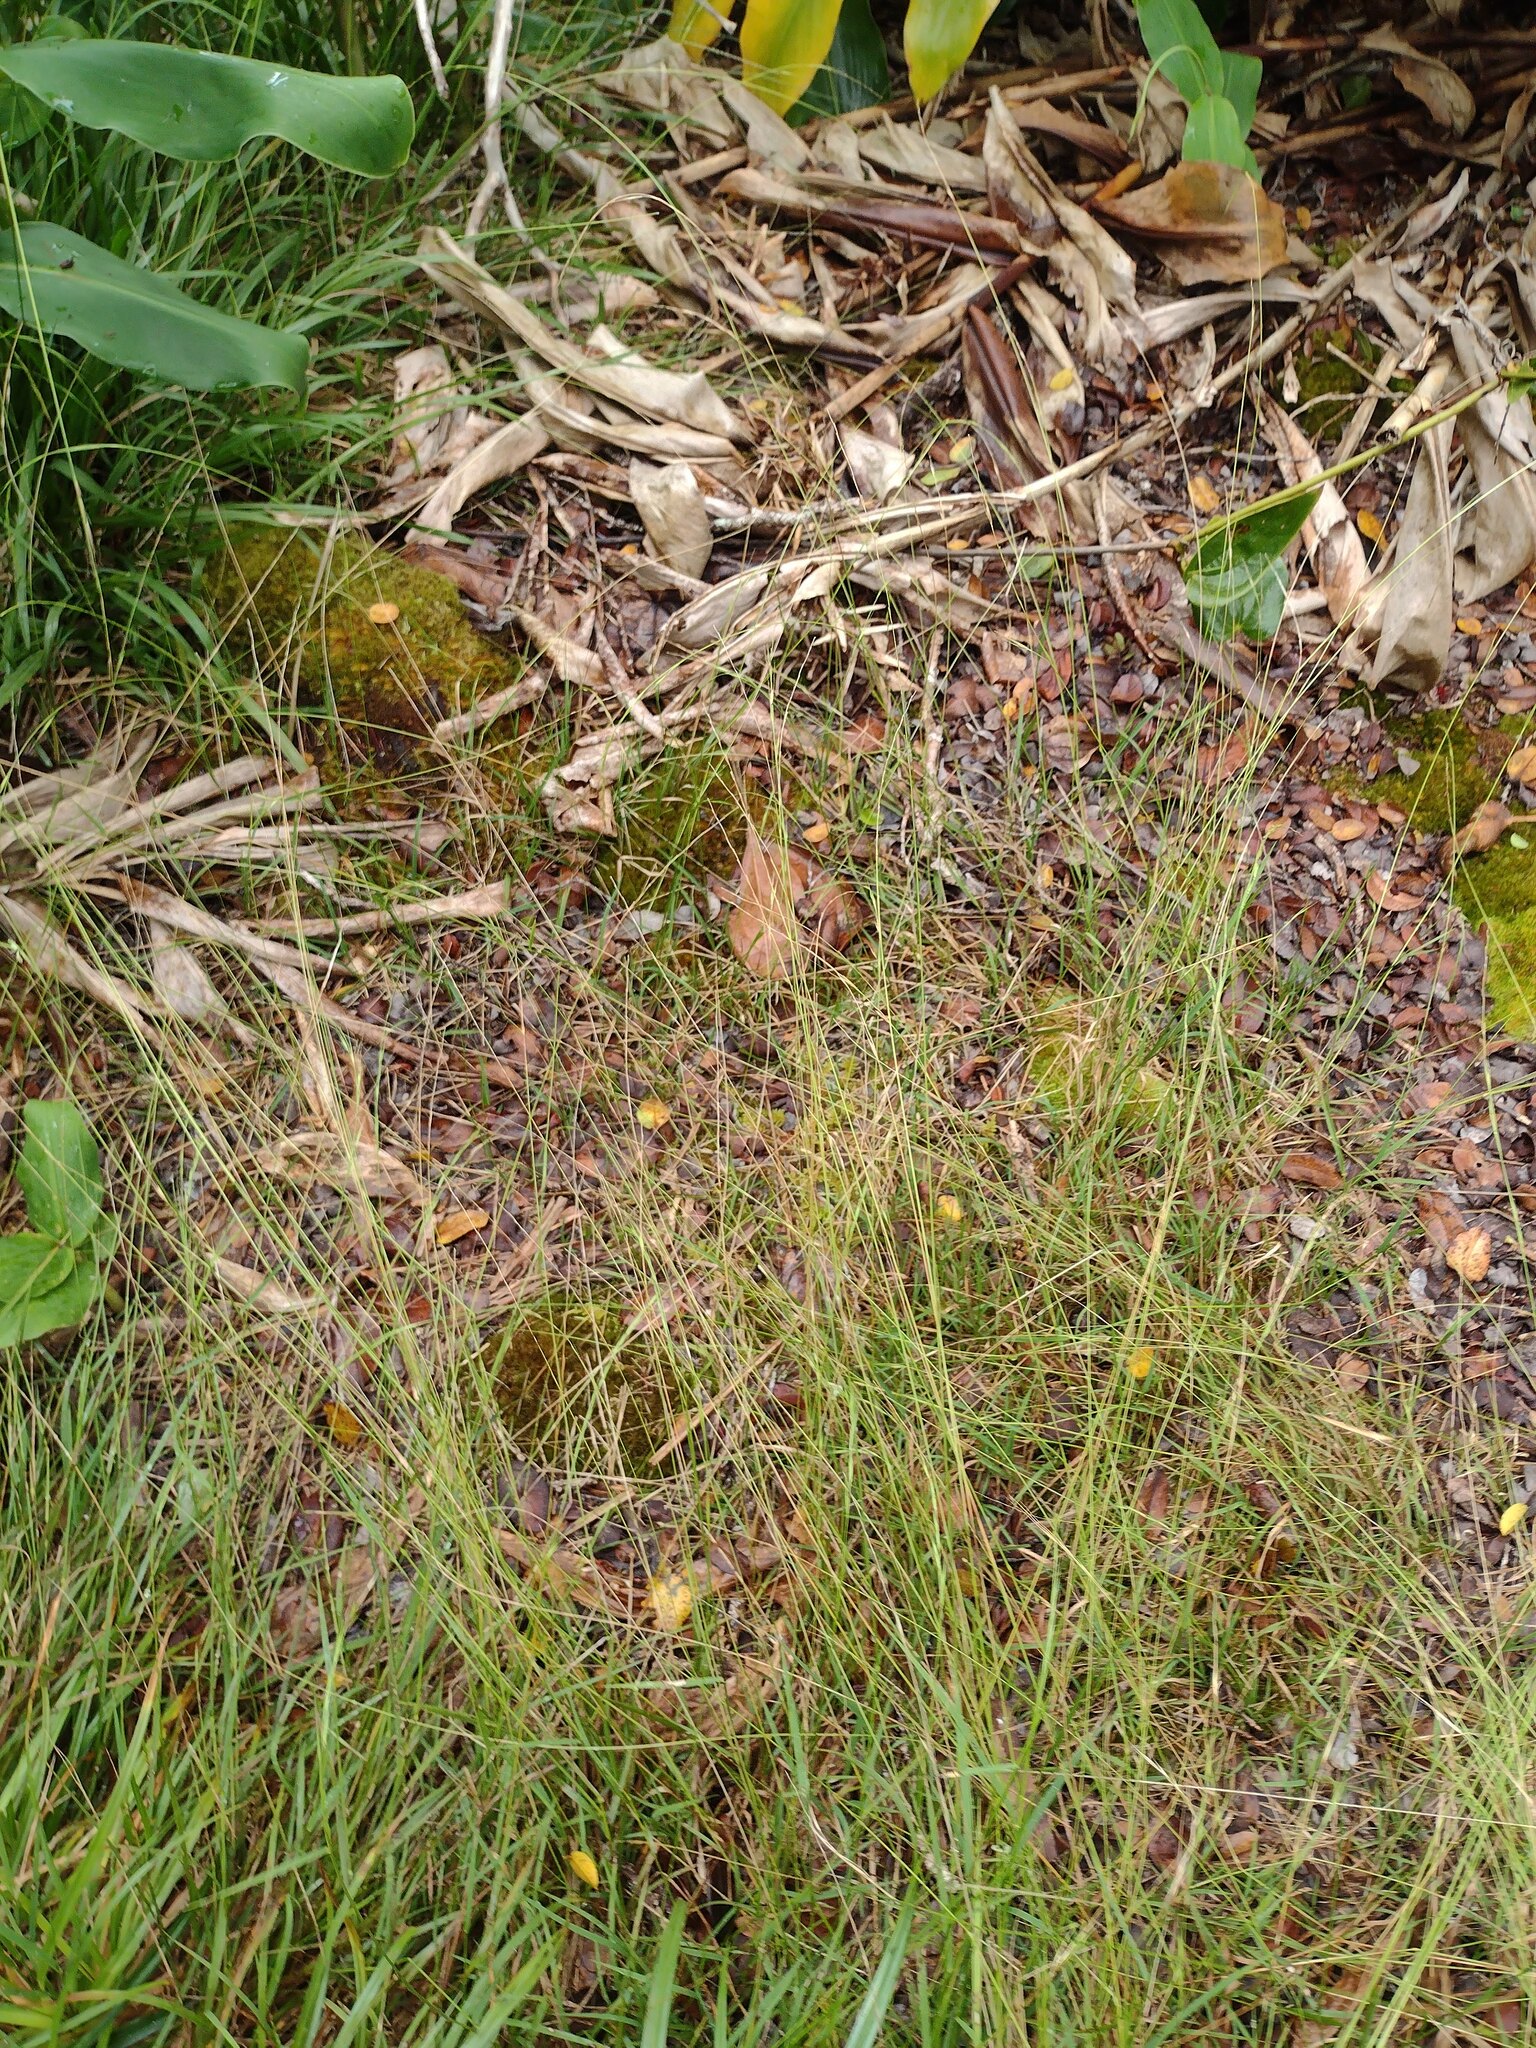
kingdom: Plantae
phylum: Tracheophyta
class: Liliopsida
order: Poales
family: Poaceae
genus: Microlaena
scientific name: Microlaena stipoides
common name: Meadow ricegrass
